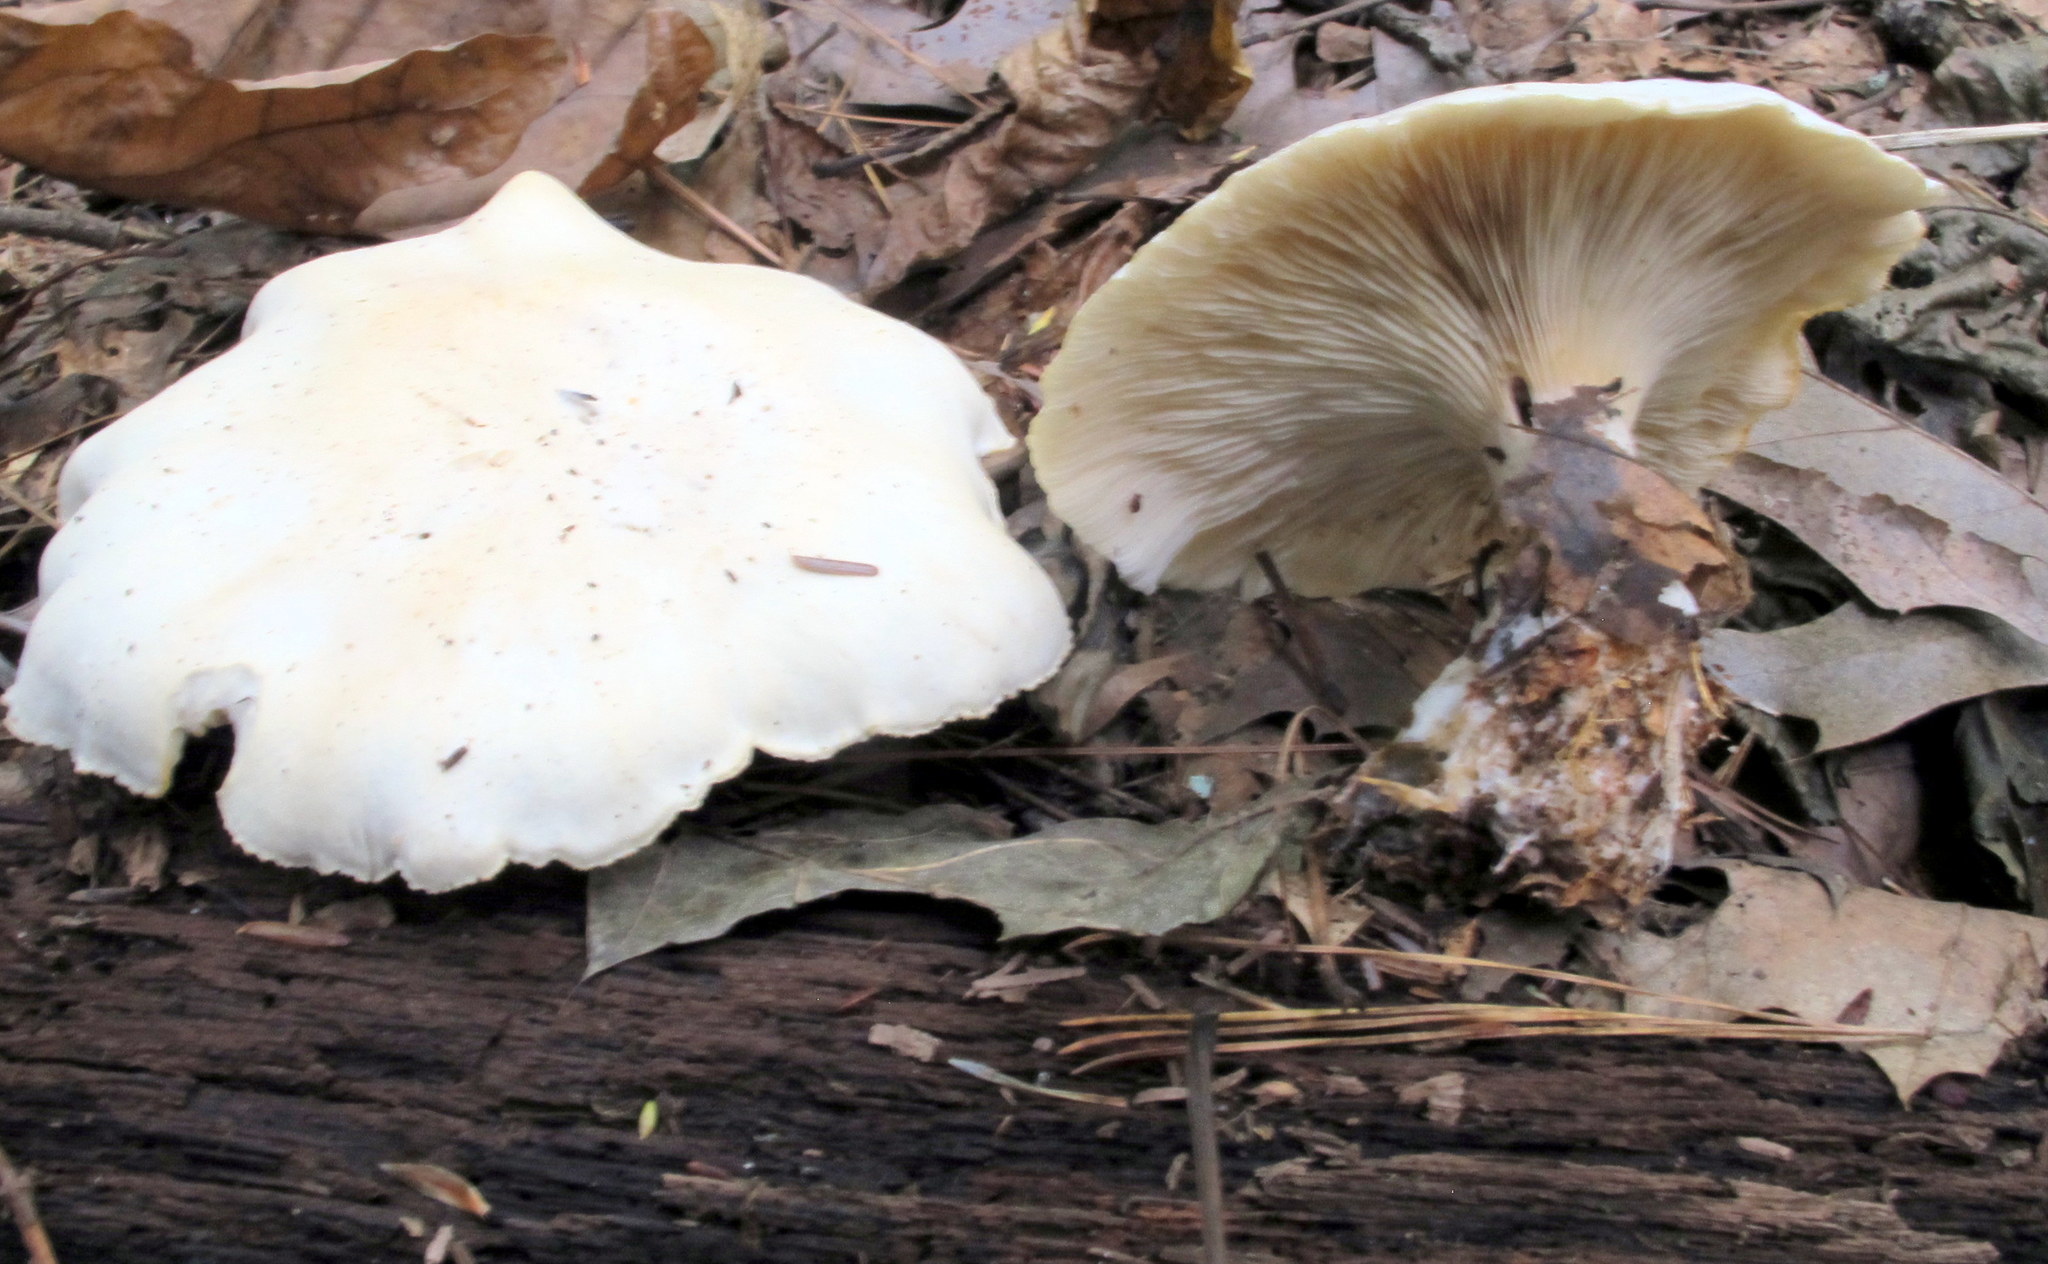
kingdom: Fungi
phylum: Basidiomycota
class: Agaricomycetes
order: Agaricales
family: Tricholomataceae
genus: Clitocybe
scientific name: Clitocybe robusta
